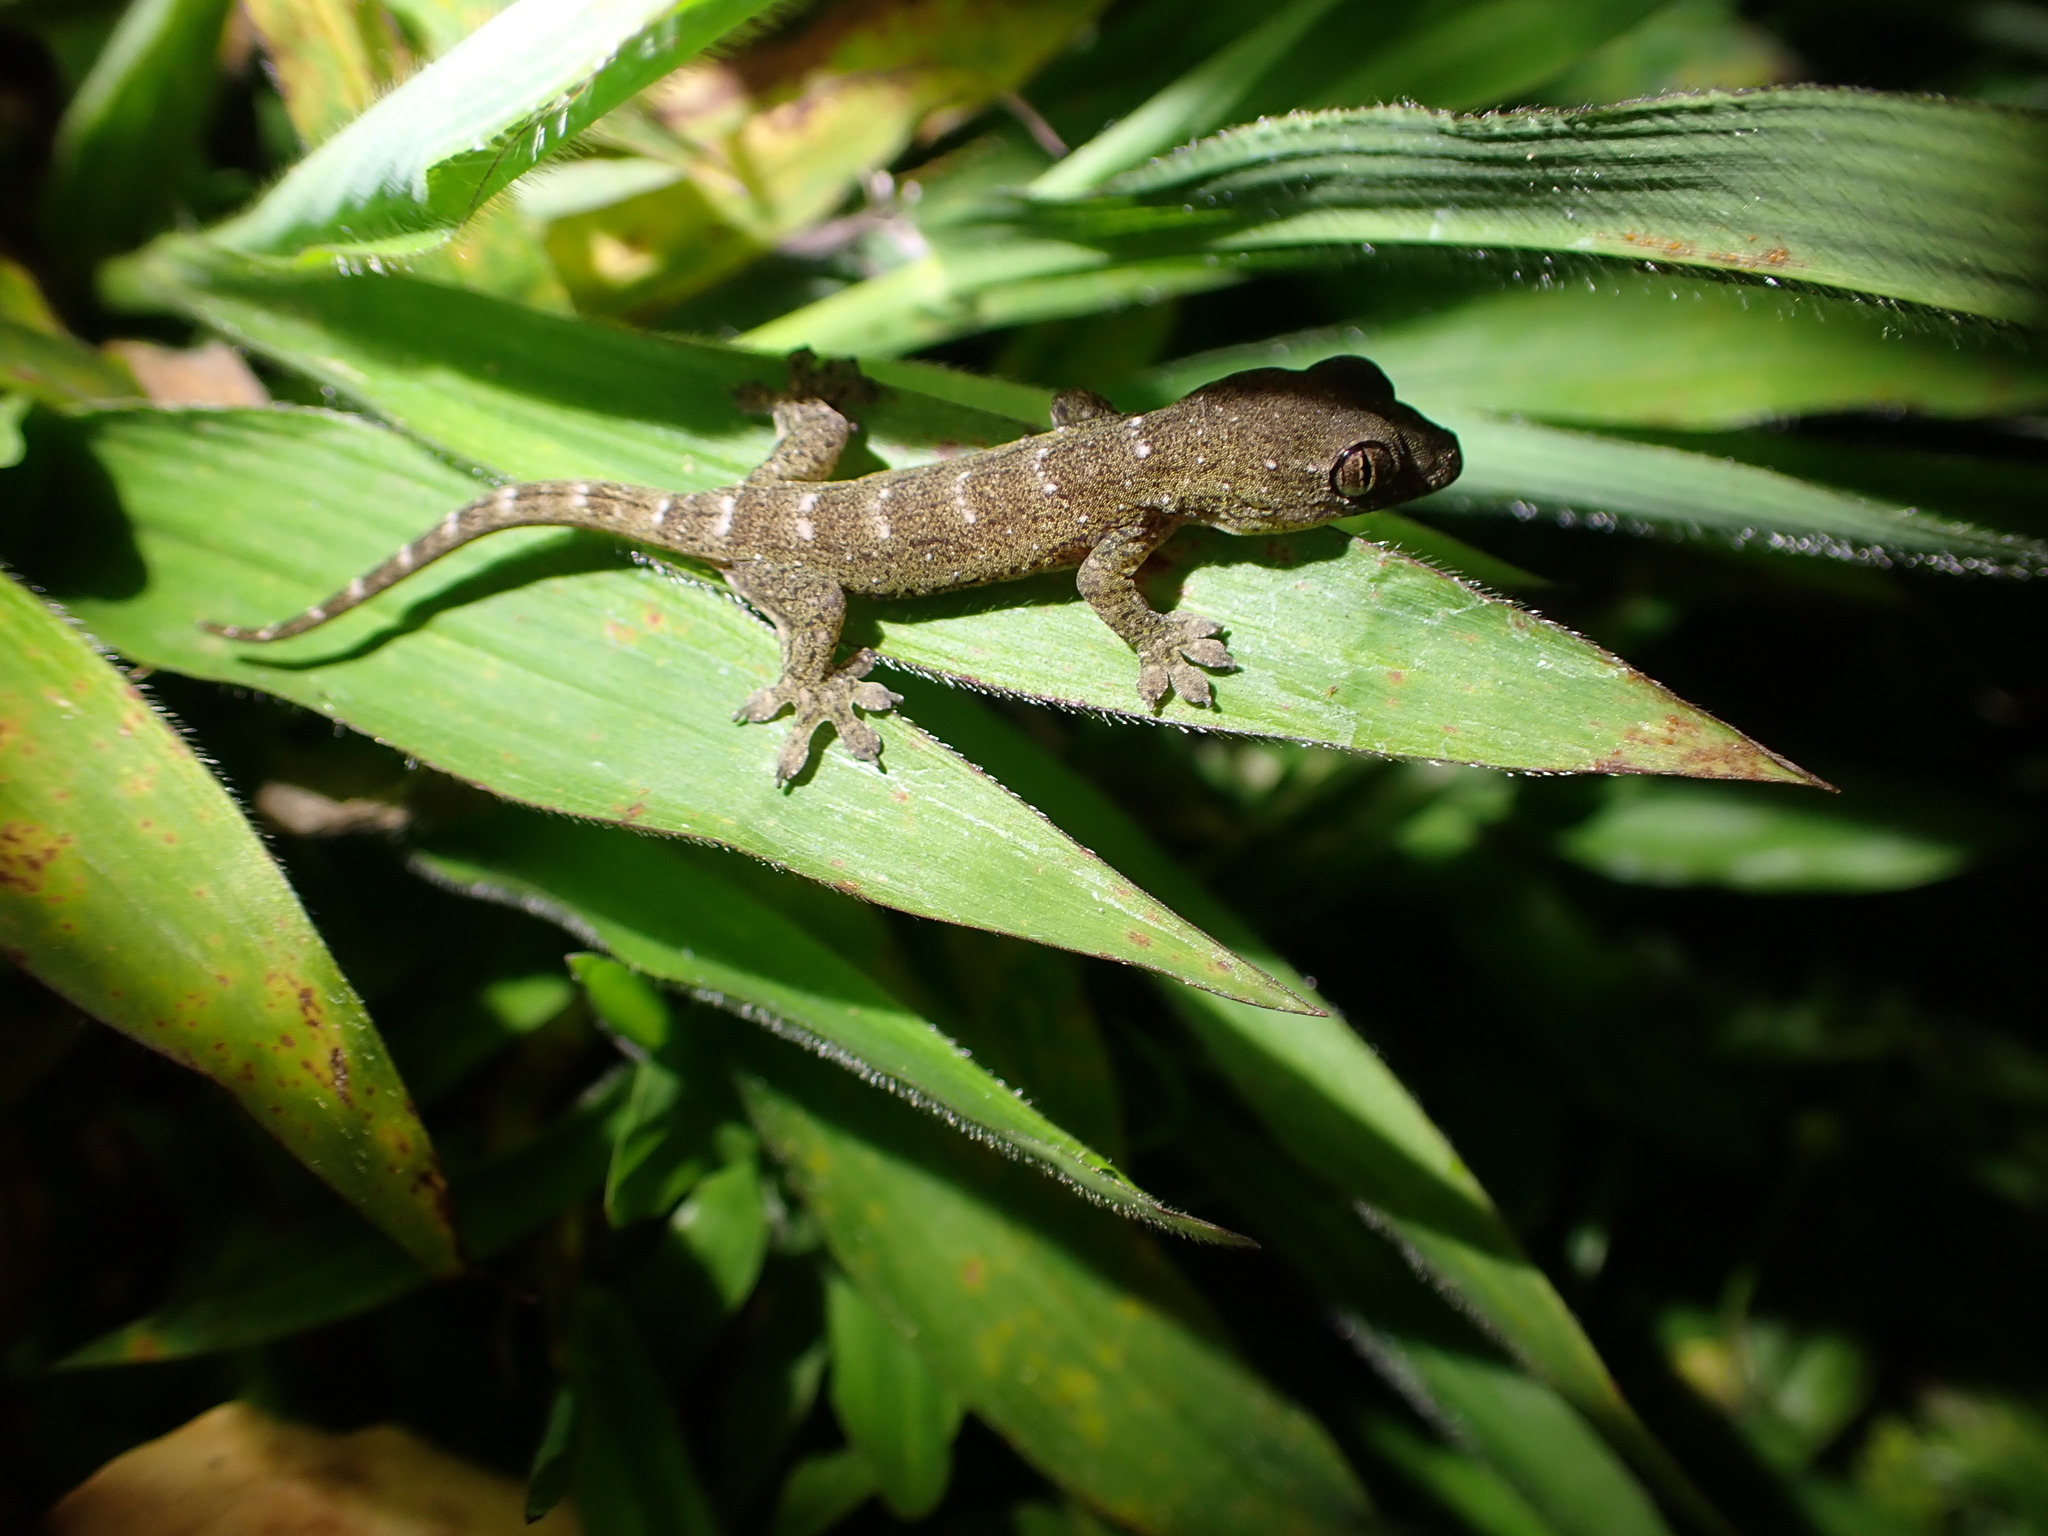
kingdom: Animalia
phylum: Chordata
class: Squamata
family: Gekkonidae
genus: Gehyra
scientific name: Gehyra oceanica
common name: Pacific dtella
